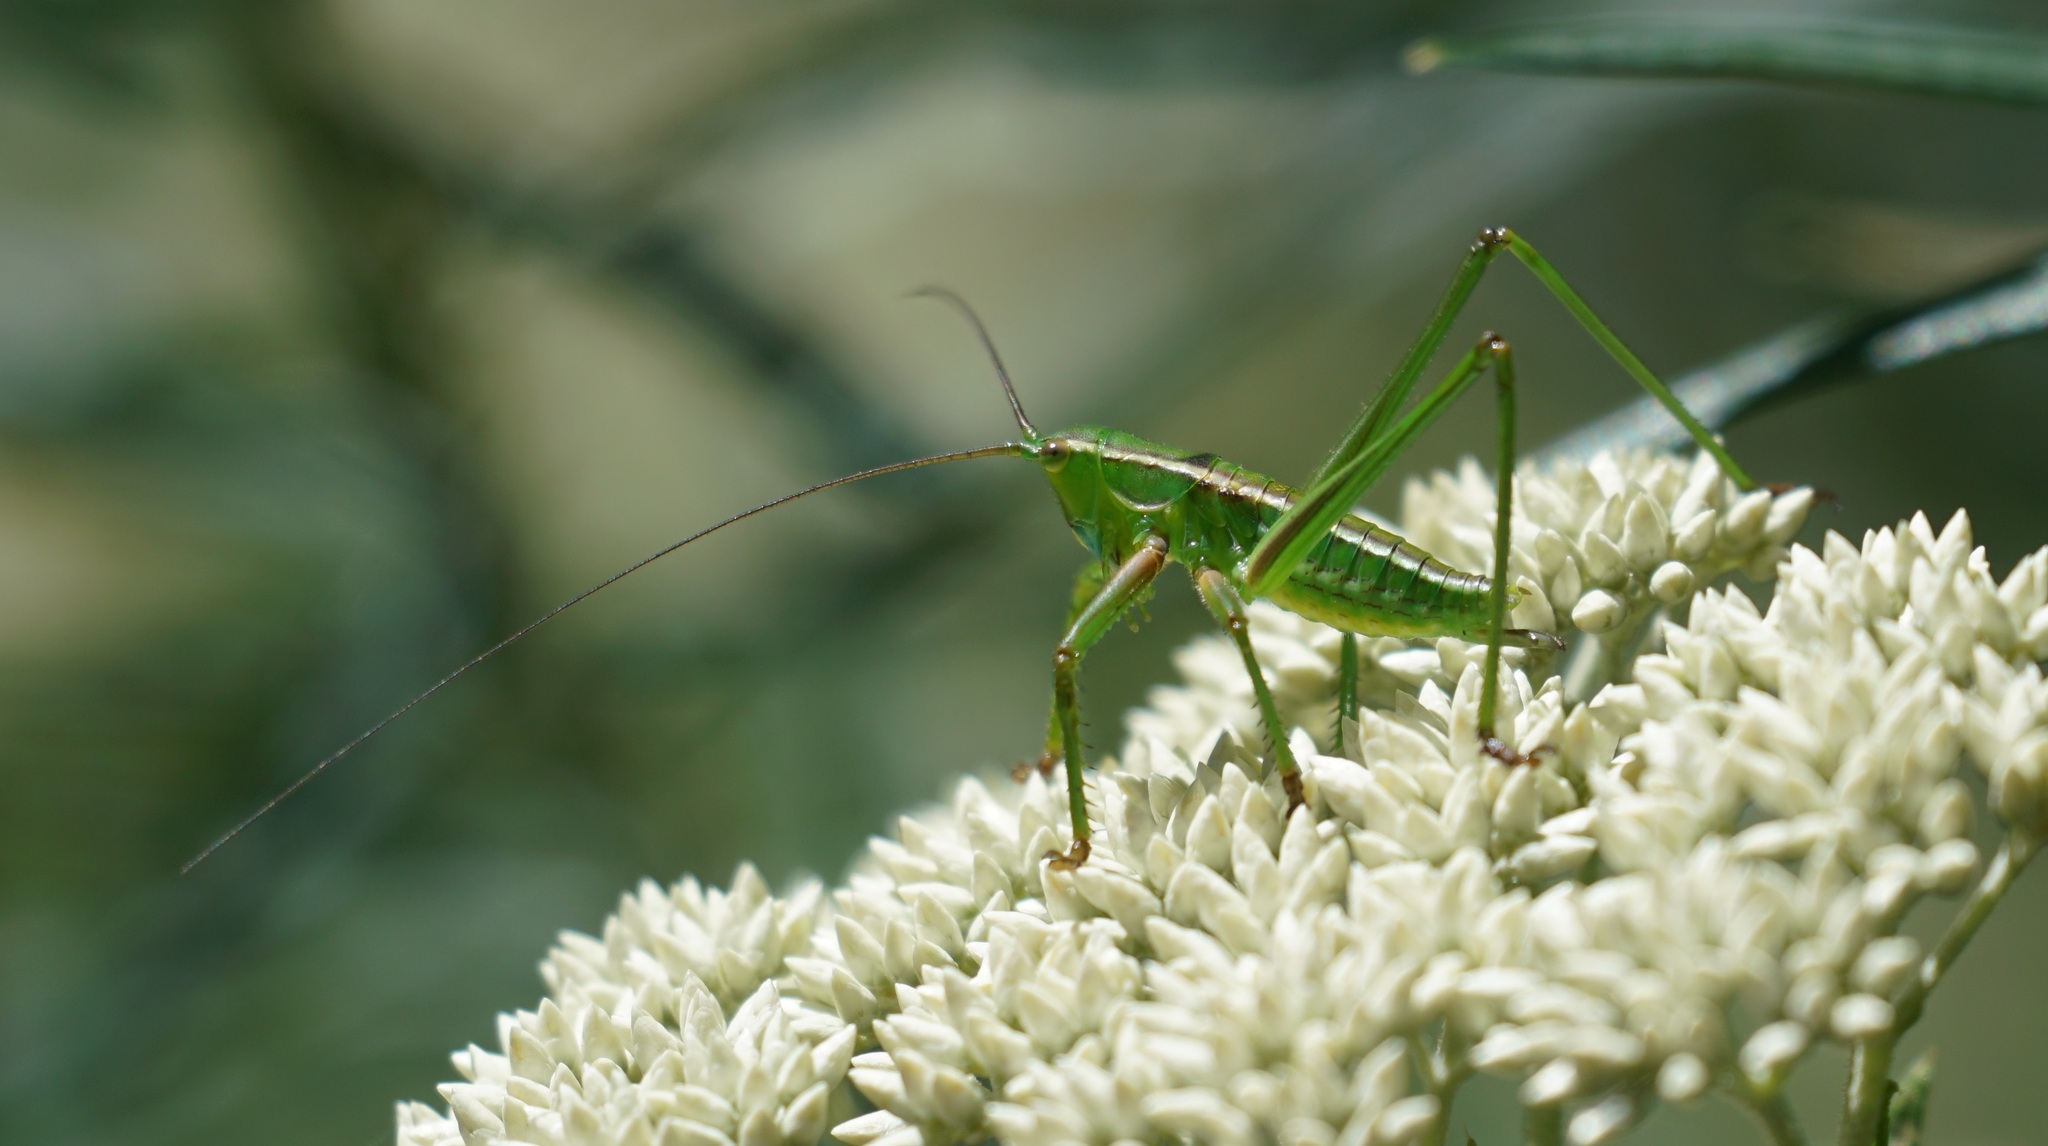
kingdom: Animalia
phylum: Arthropoda
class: Insecta
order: Orthoptera
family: Tettigoniidae
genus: Terpandrus
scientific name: Terpandrus jumbunna
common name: Jumbunna gumleaf katydid
